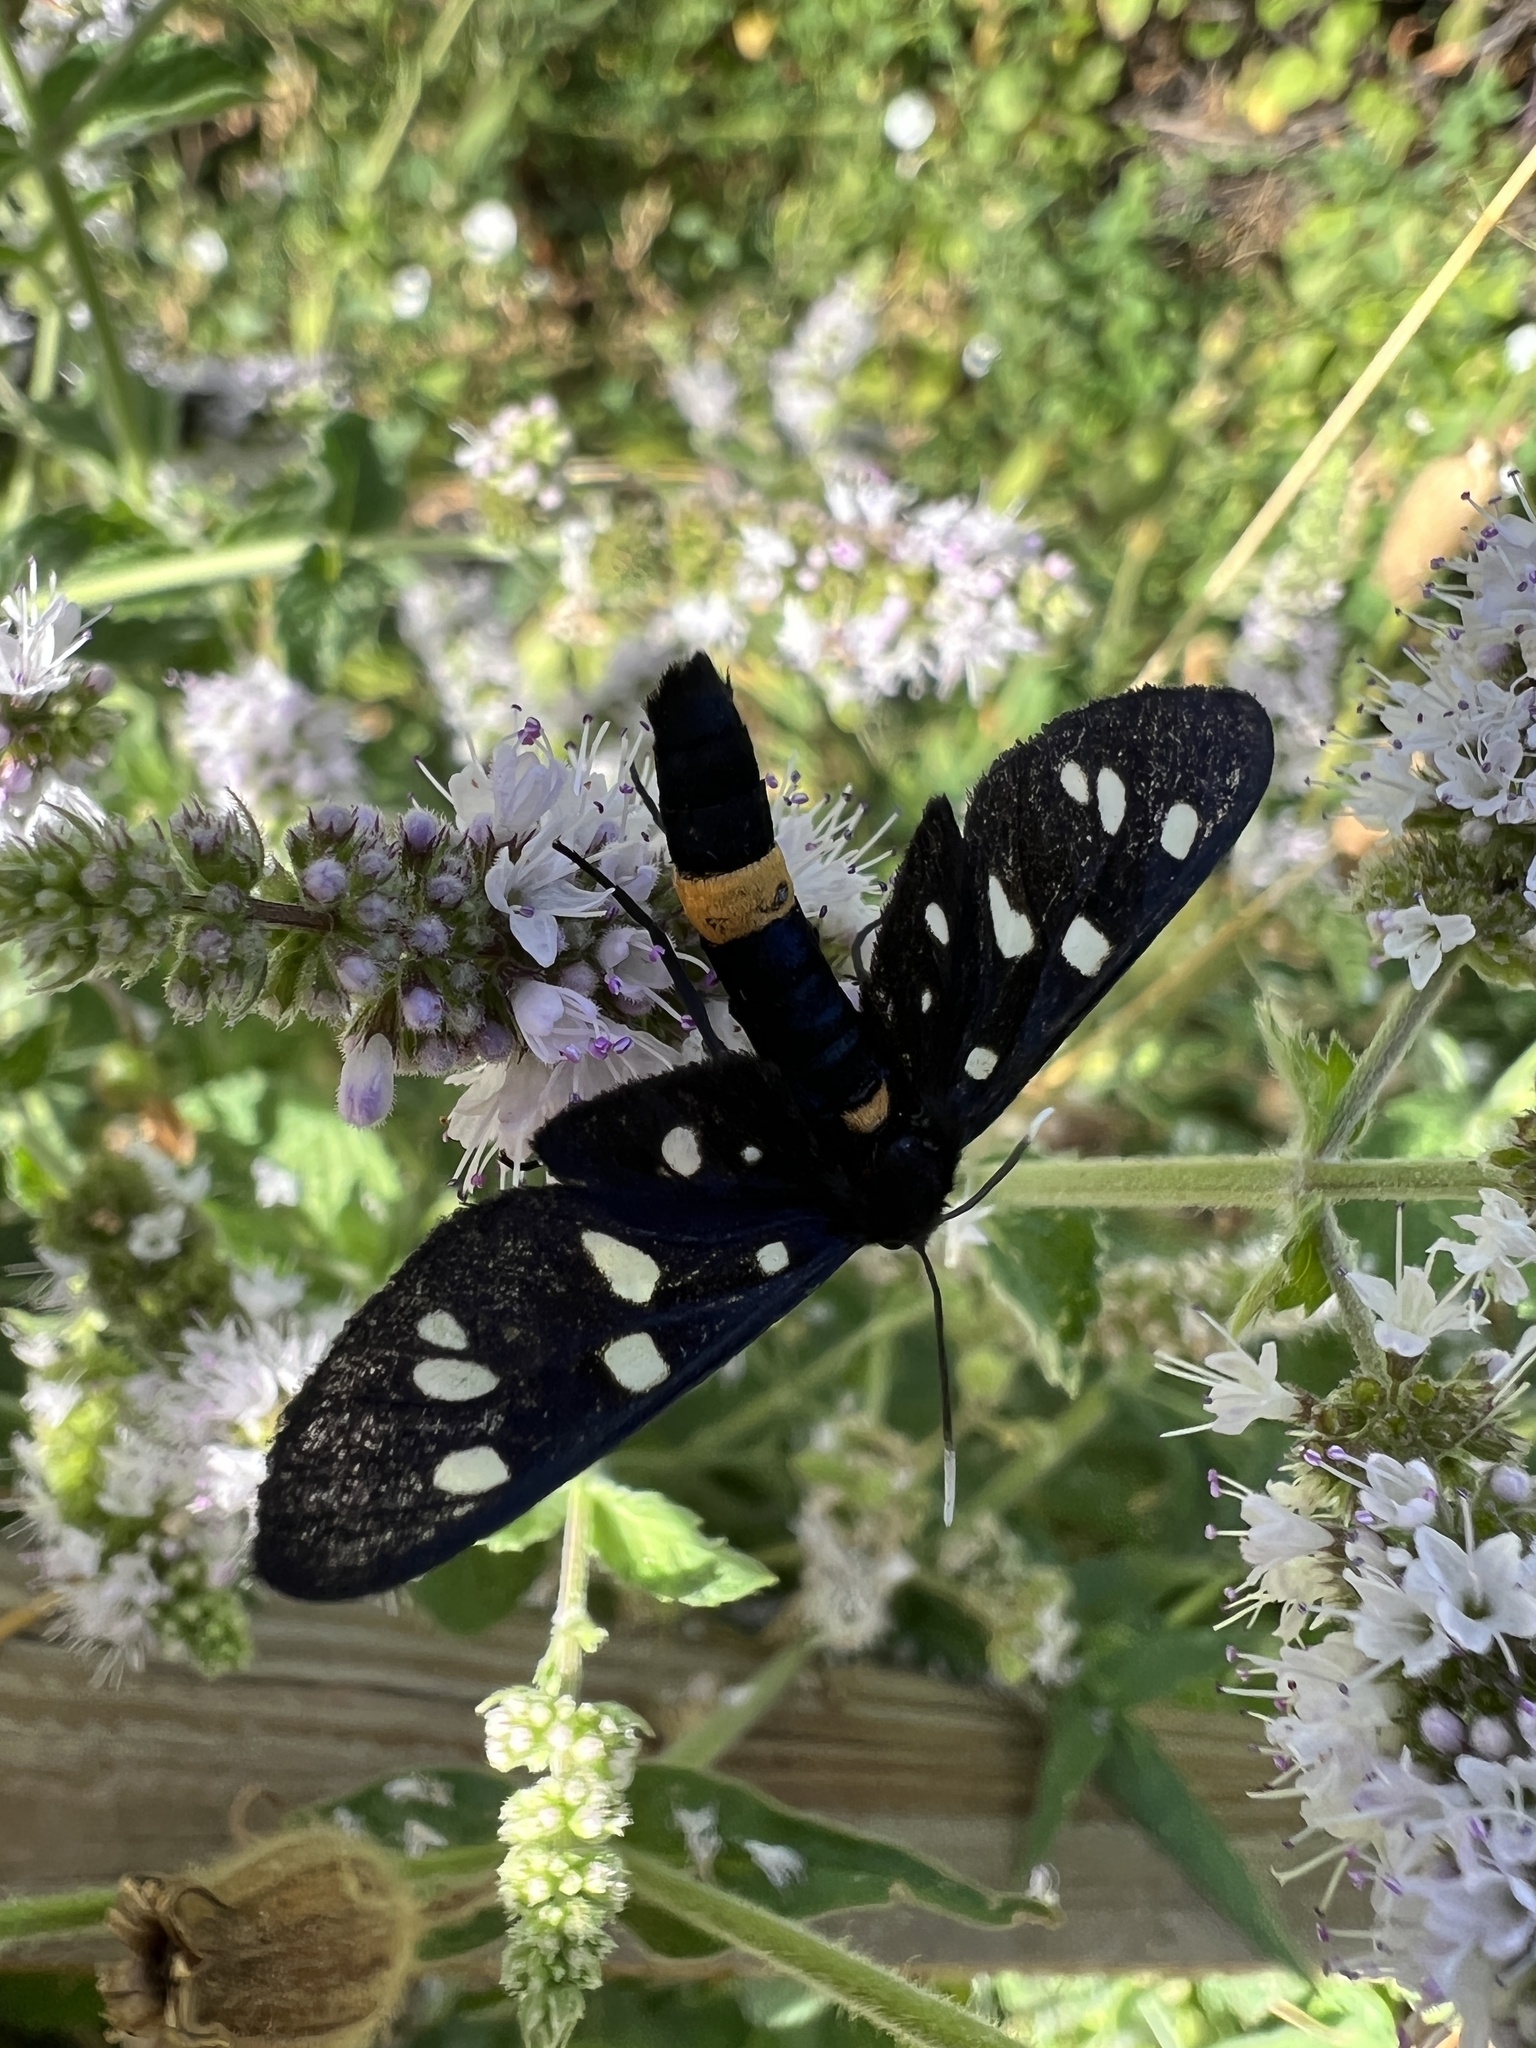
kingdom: Animalia
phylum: Arthropoda
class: Insecta
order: Lepidoptera
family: Erebidae
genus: Amata
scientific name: Amata phegea
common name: Nine-spotted
